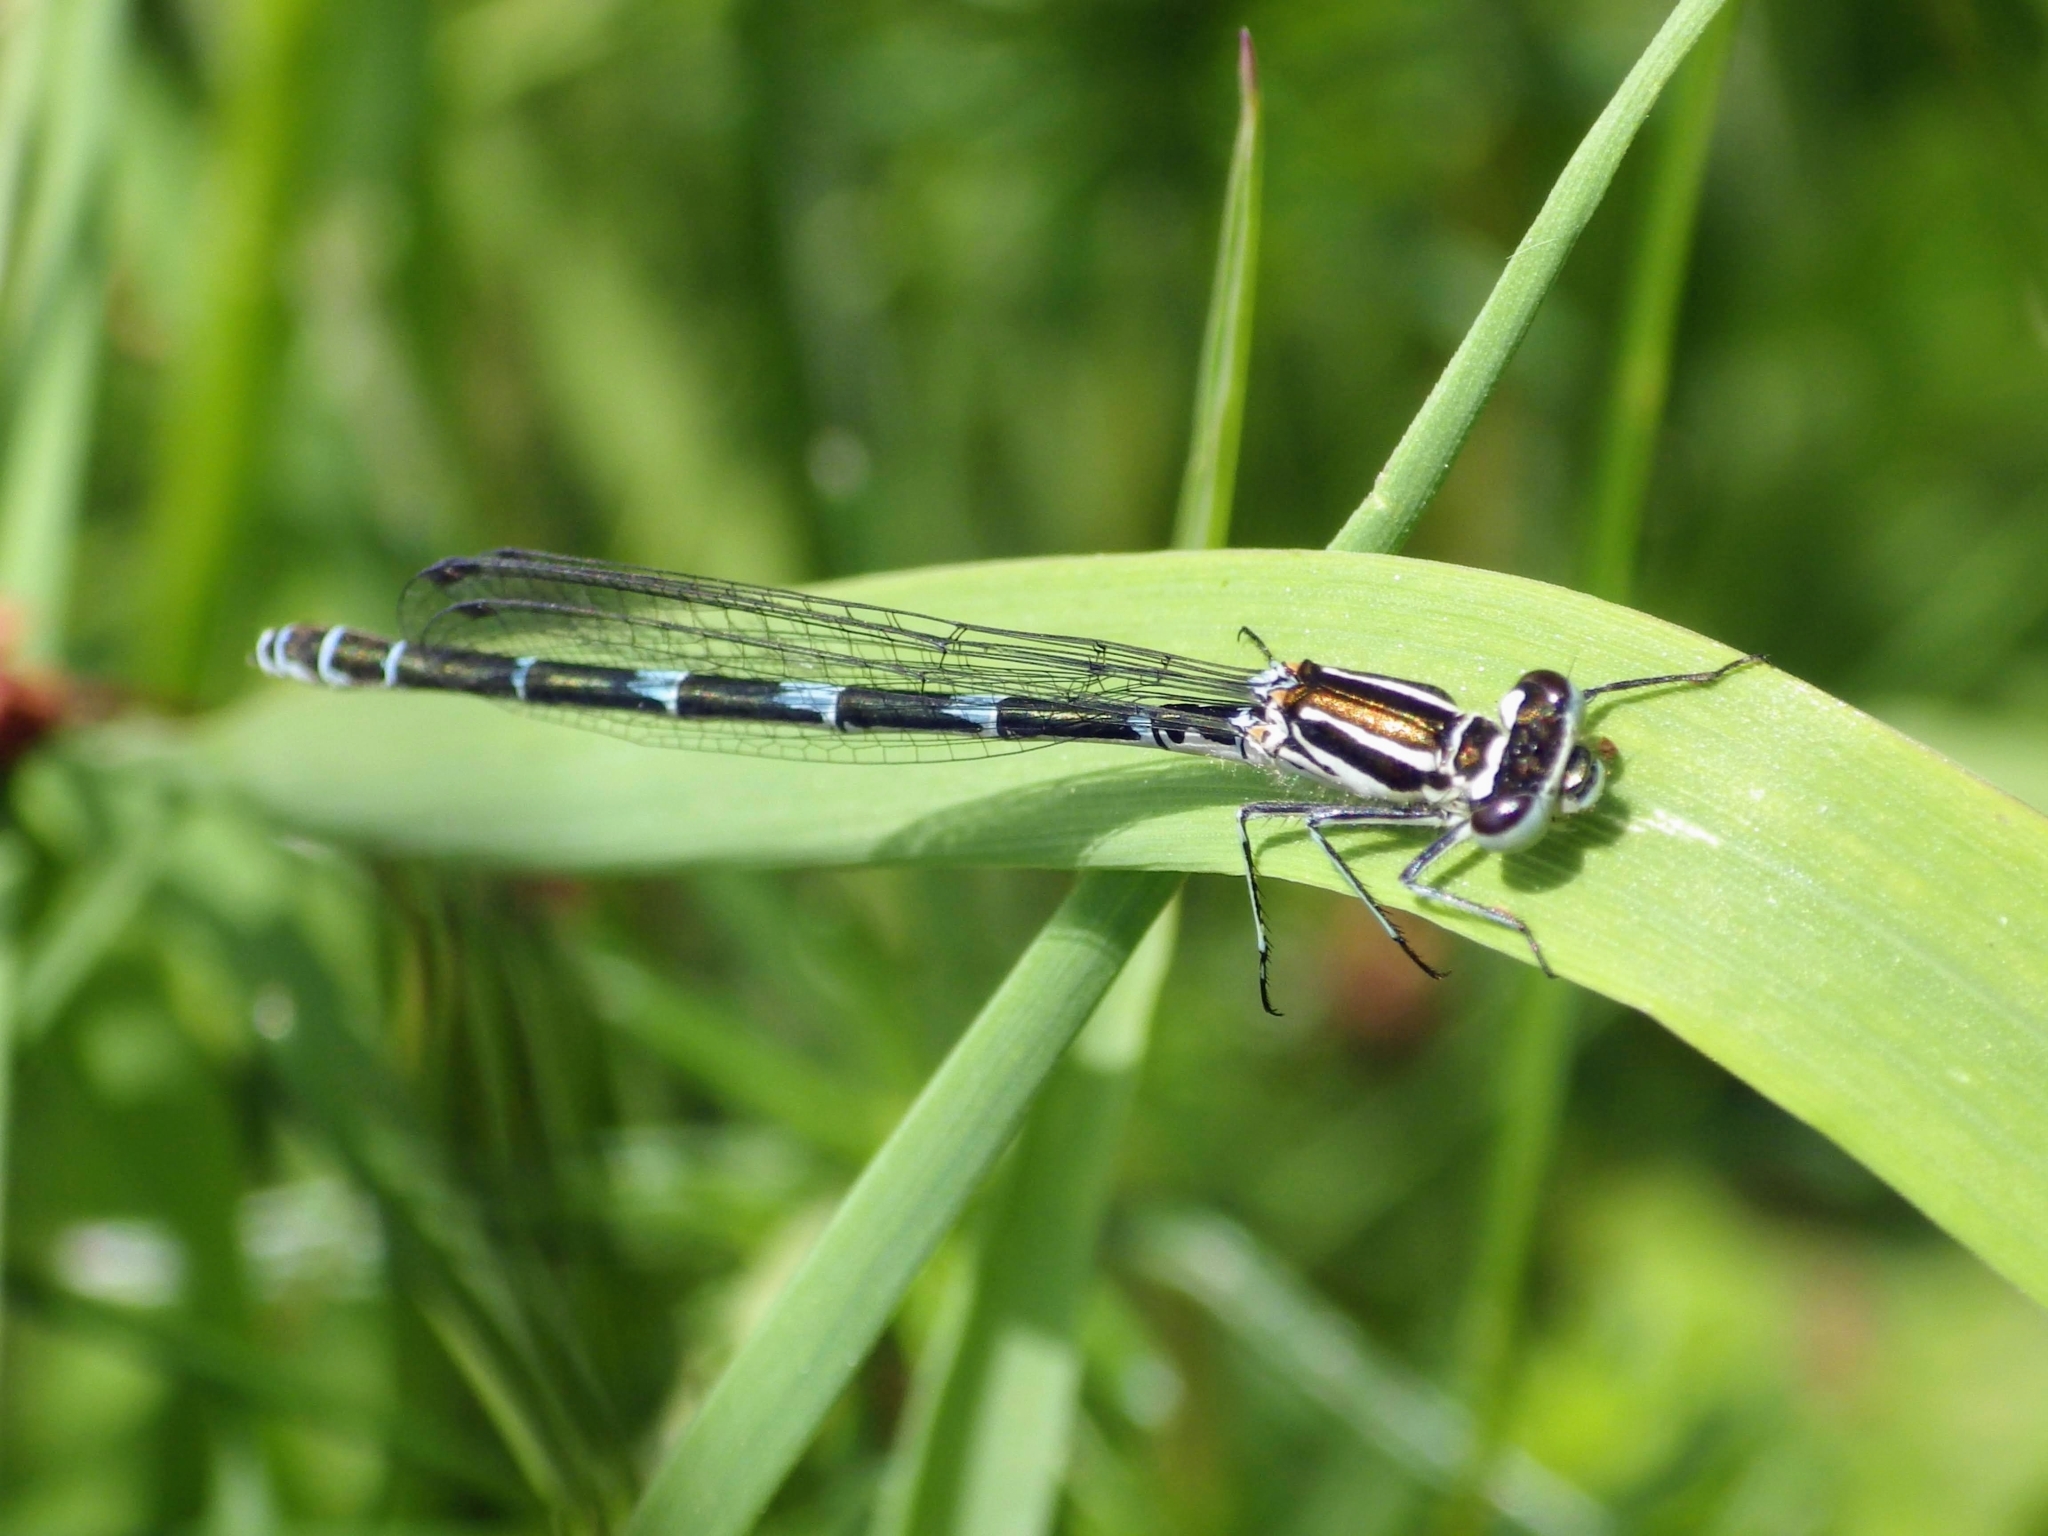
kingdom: Animalia
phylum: Arthropoda
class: Insecta
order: Odonata
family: Coenagrionidae
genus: Coenagrion
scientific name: Coenagrion puella
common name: Azure damselfly
